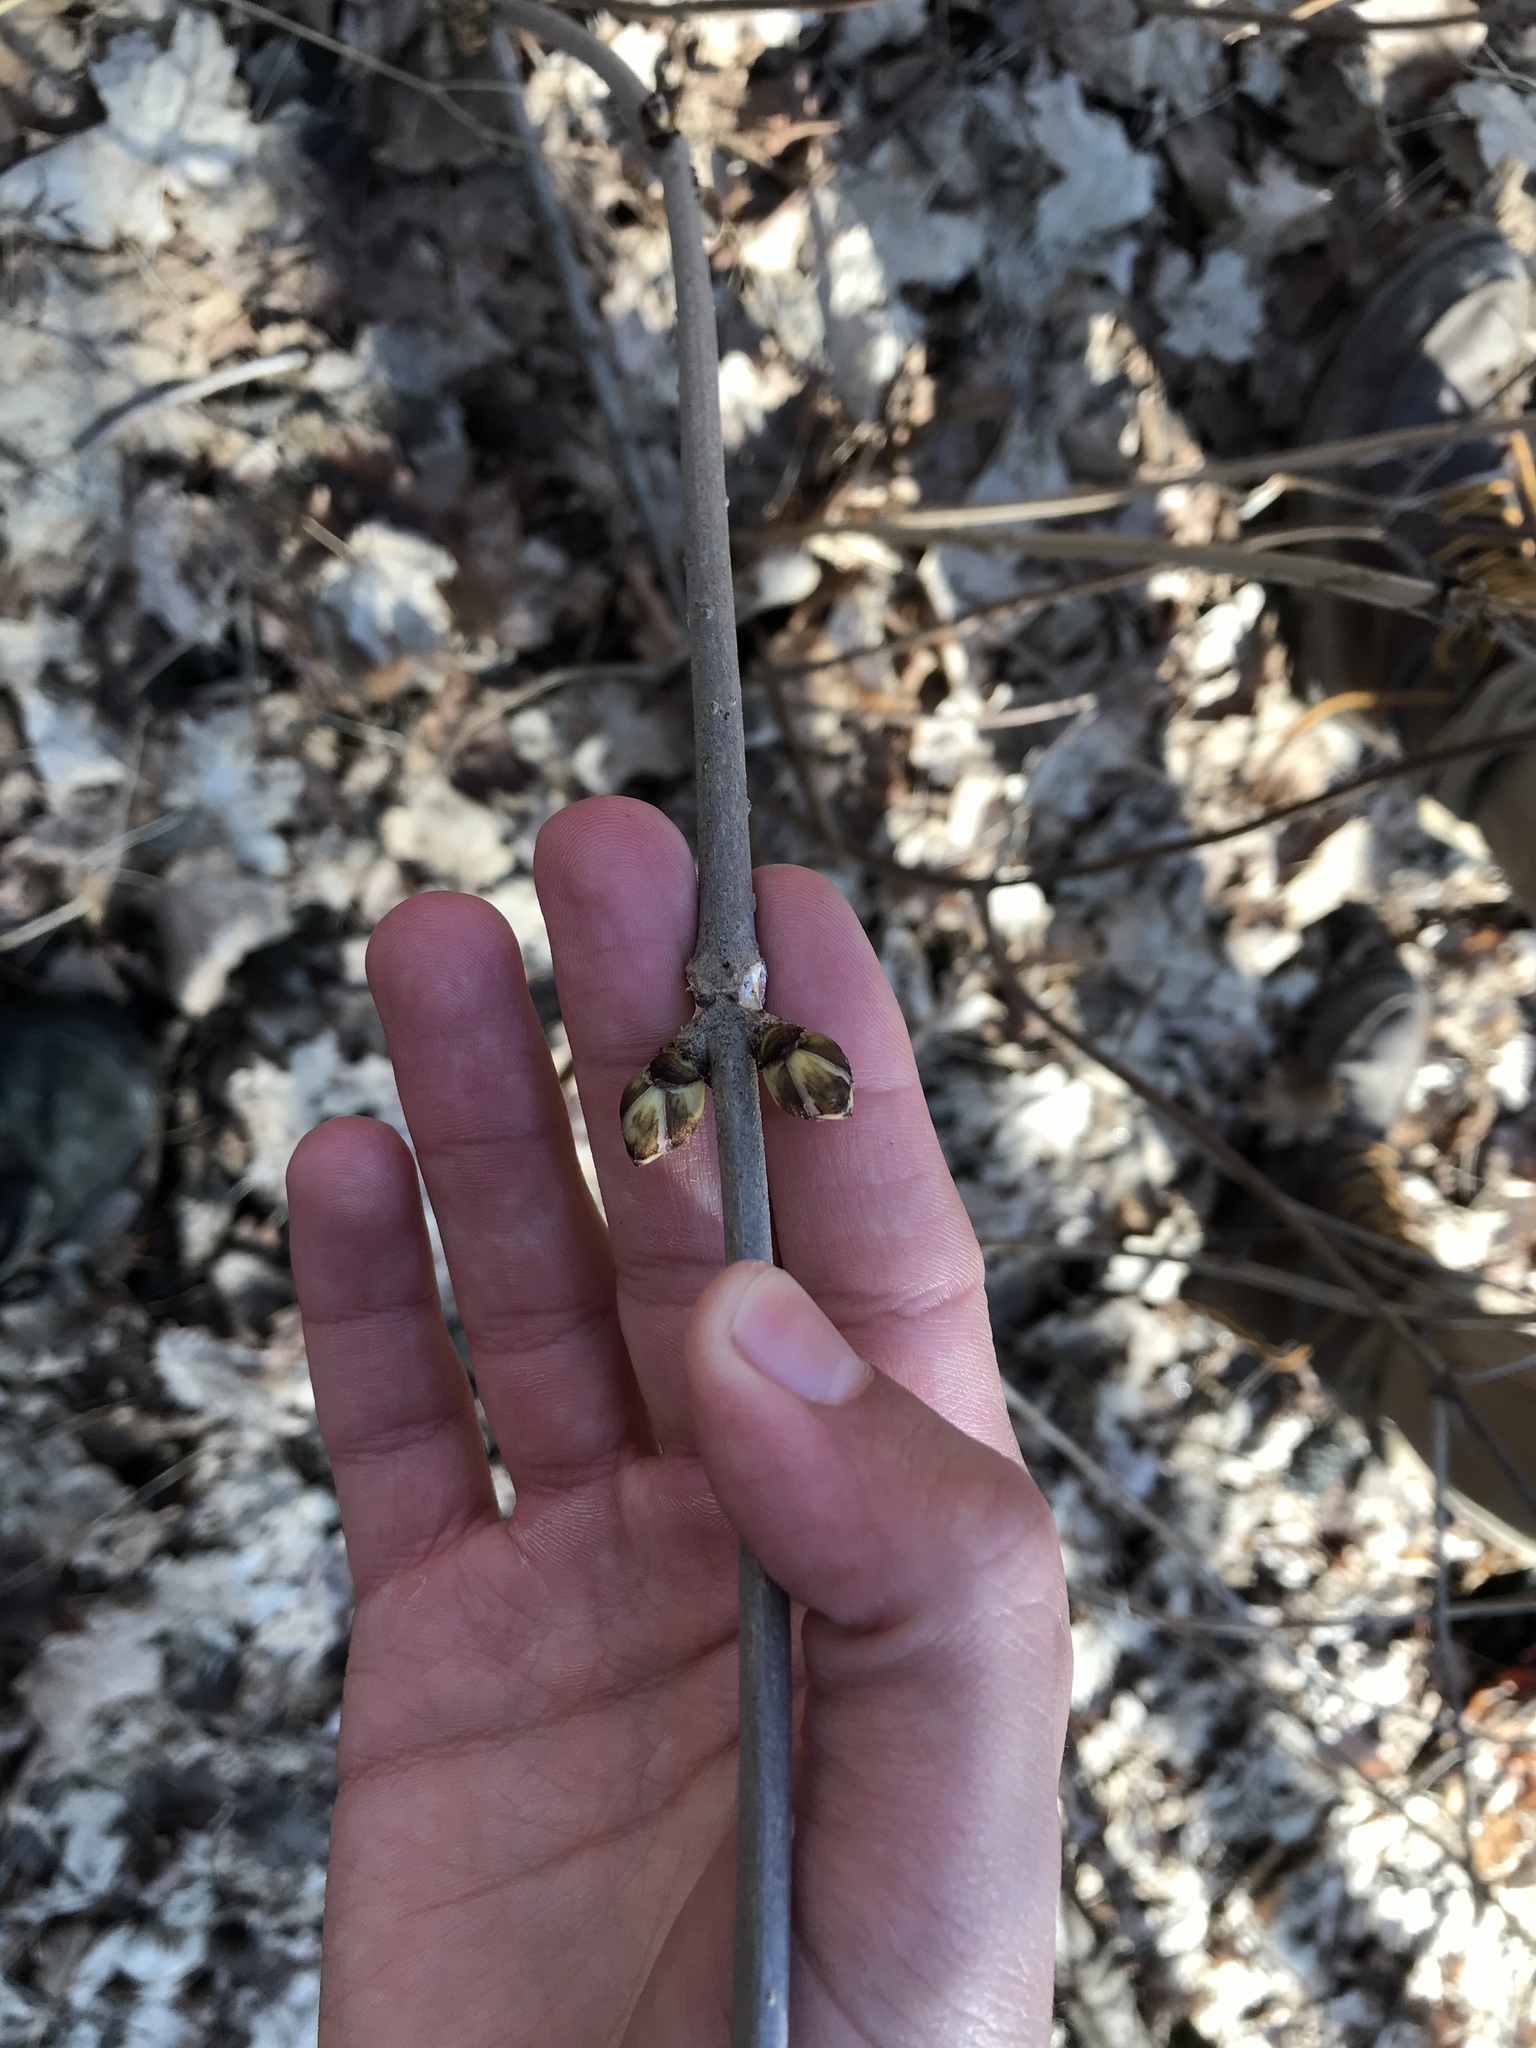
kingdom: Plantae
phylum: Tracheophyta
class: Magnoliopsida
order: Dipsacales
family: Viburnaceae
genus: Sambucus
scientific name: Sambucus racemosa
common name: Red-berried elder
